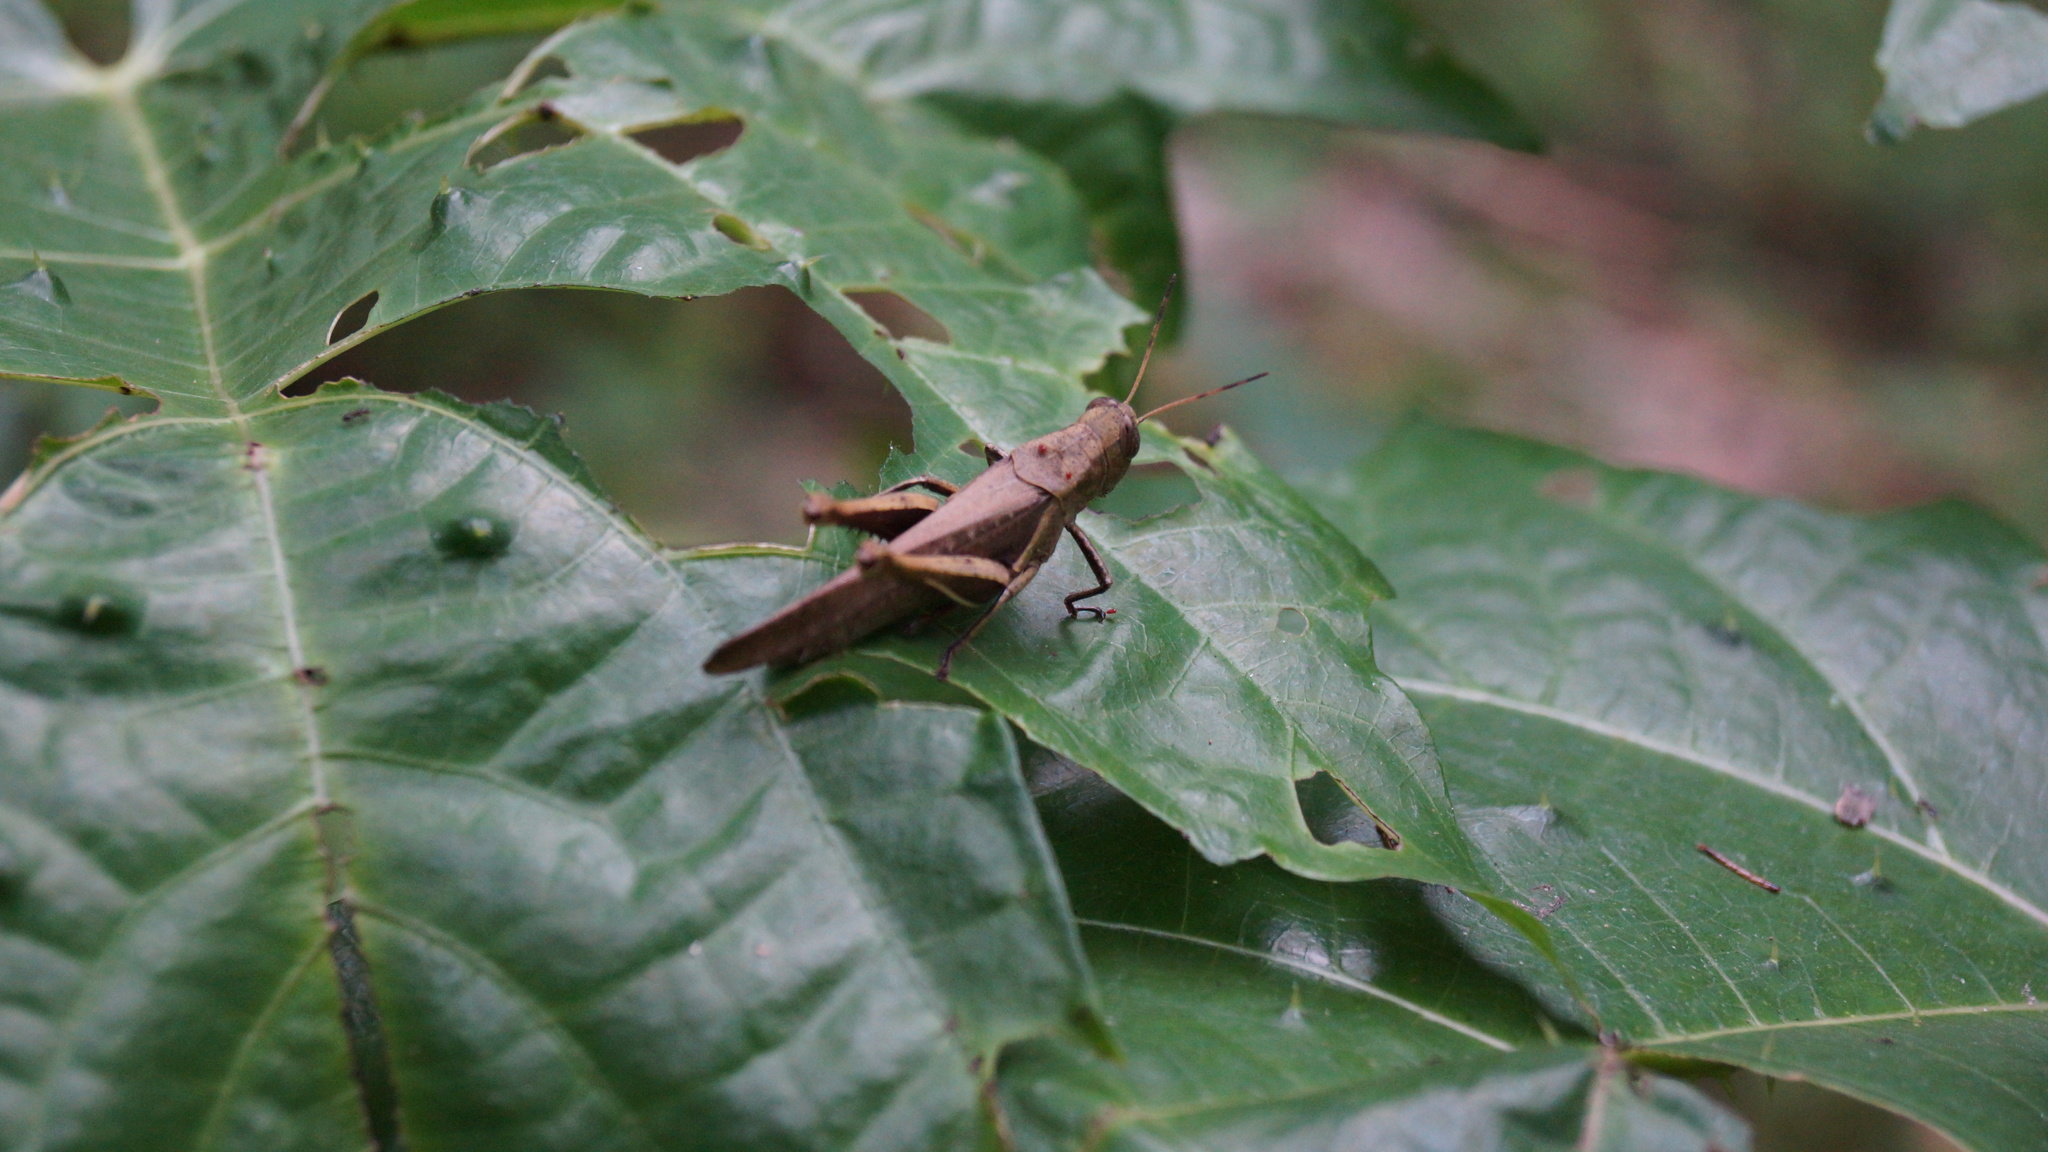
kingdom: Animalia
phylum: Arthropoda
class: Insecta
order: Orthoptera
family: Acrididae
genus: Abracris
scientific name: Abracris flavolineata
